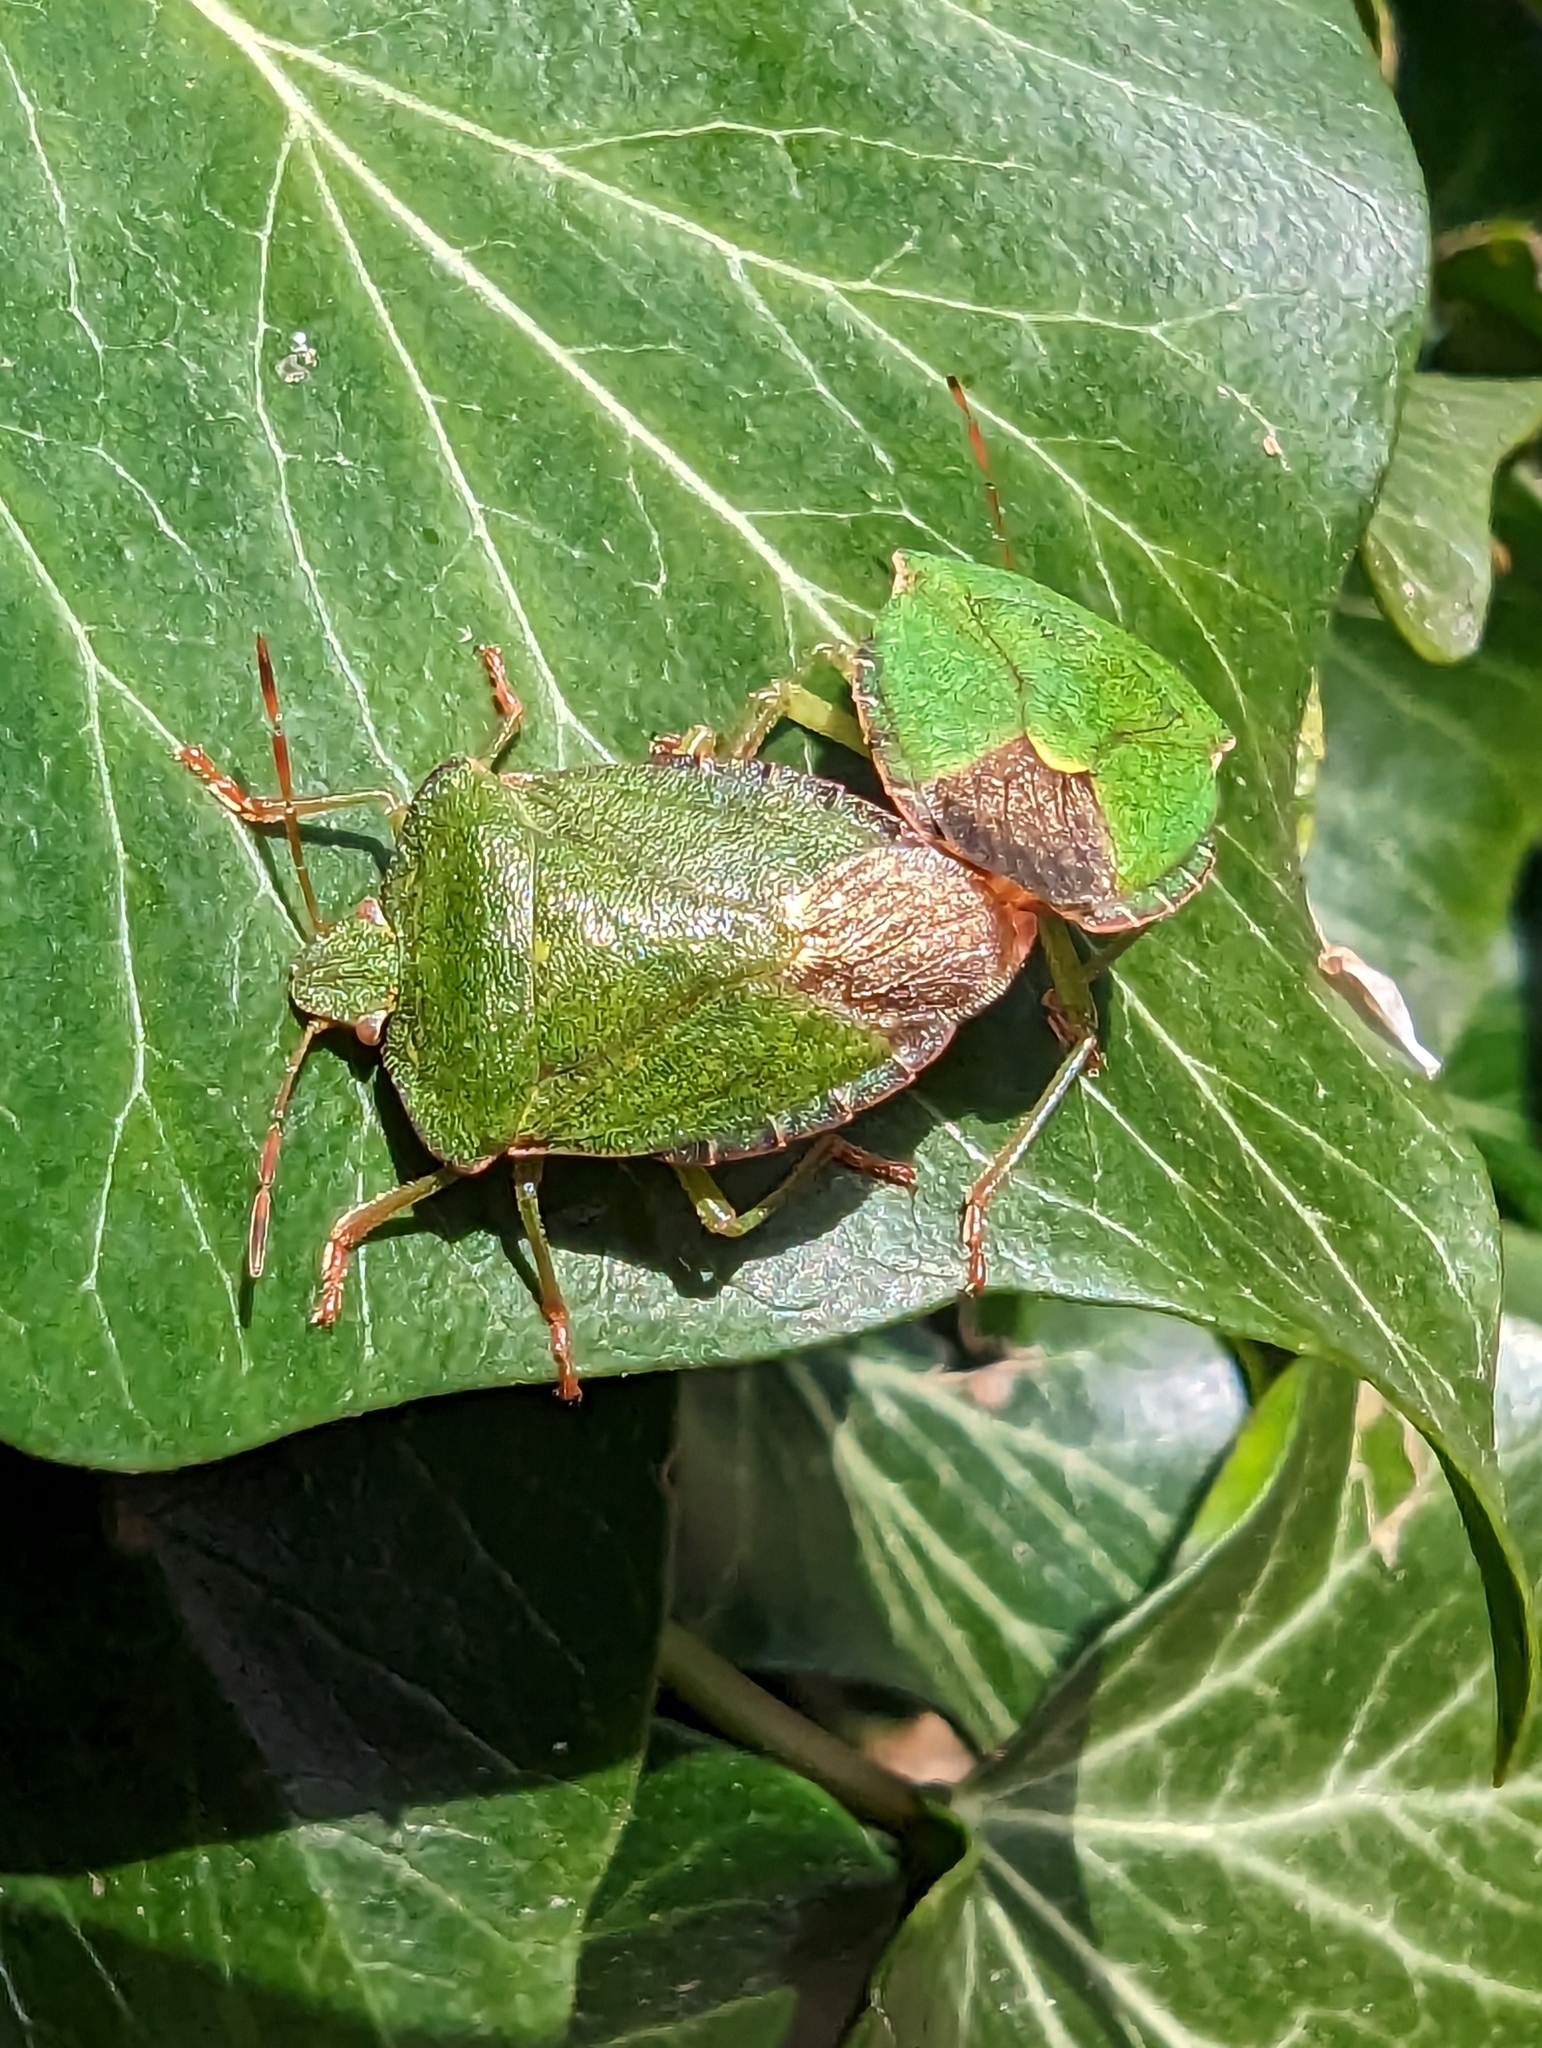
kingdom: Animalia
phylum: Arthropoda
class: Insecta
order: Hemiptera
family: Pentatomidae
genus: Palomena
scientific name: Palomena prasina
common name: Green shieldbug
